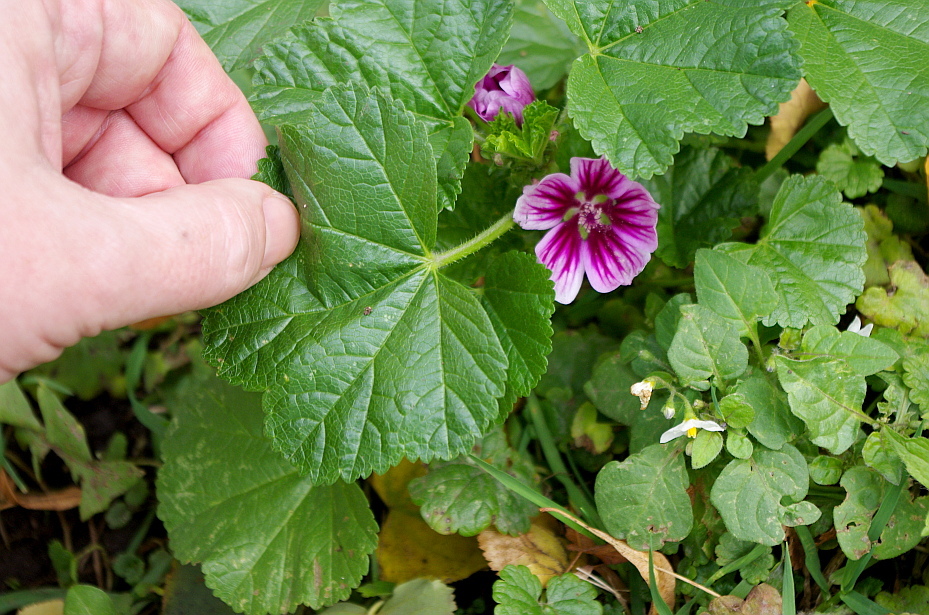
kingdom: Plantae
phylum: Tracheophyta
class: Magnoliopsida
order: Malvales
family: Malvaceae
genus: Malva
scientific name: Malva sylvestris
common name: Common mallow
